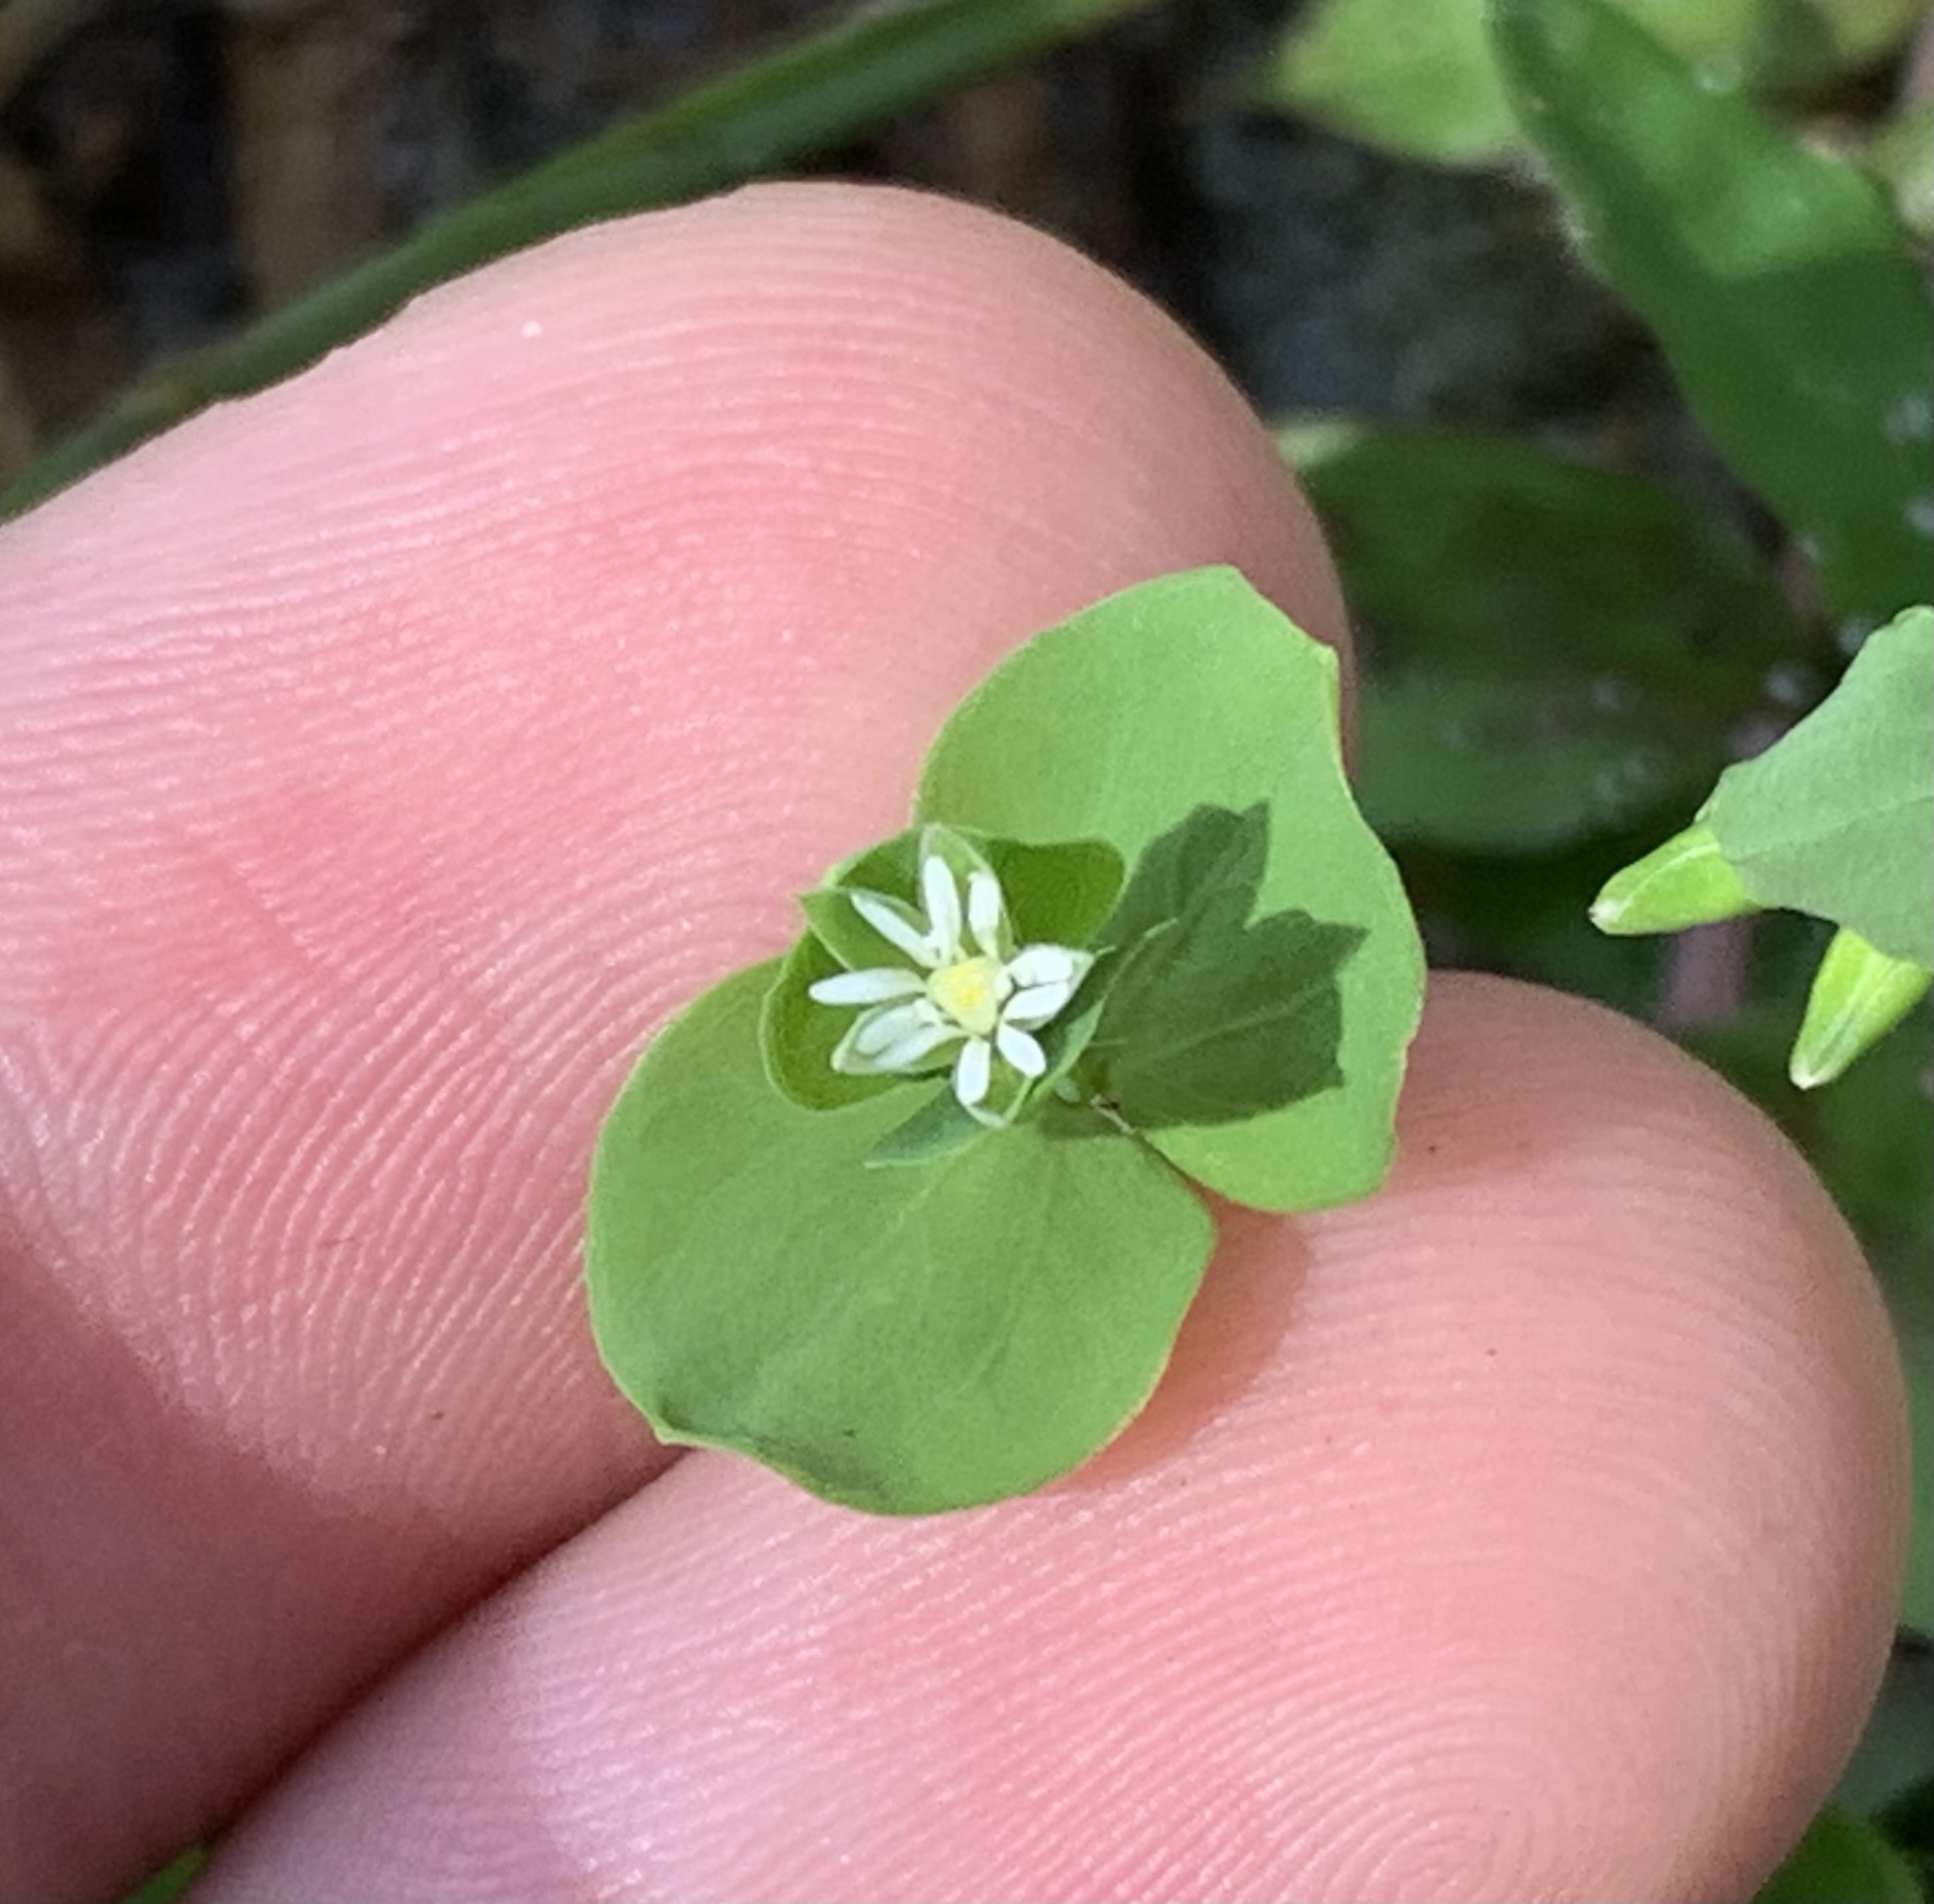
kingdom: Plantae
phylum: Tracheophyta
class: Magnoliopsida
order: Caryophyllales
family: Caryophyllaceae
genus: Drymaria
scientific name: Drymaria cordata
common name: Whitesnow
